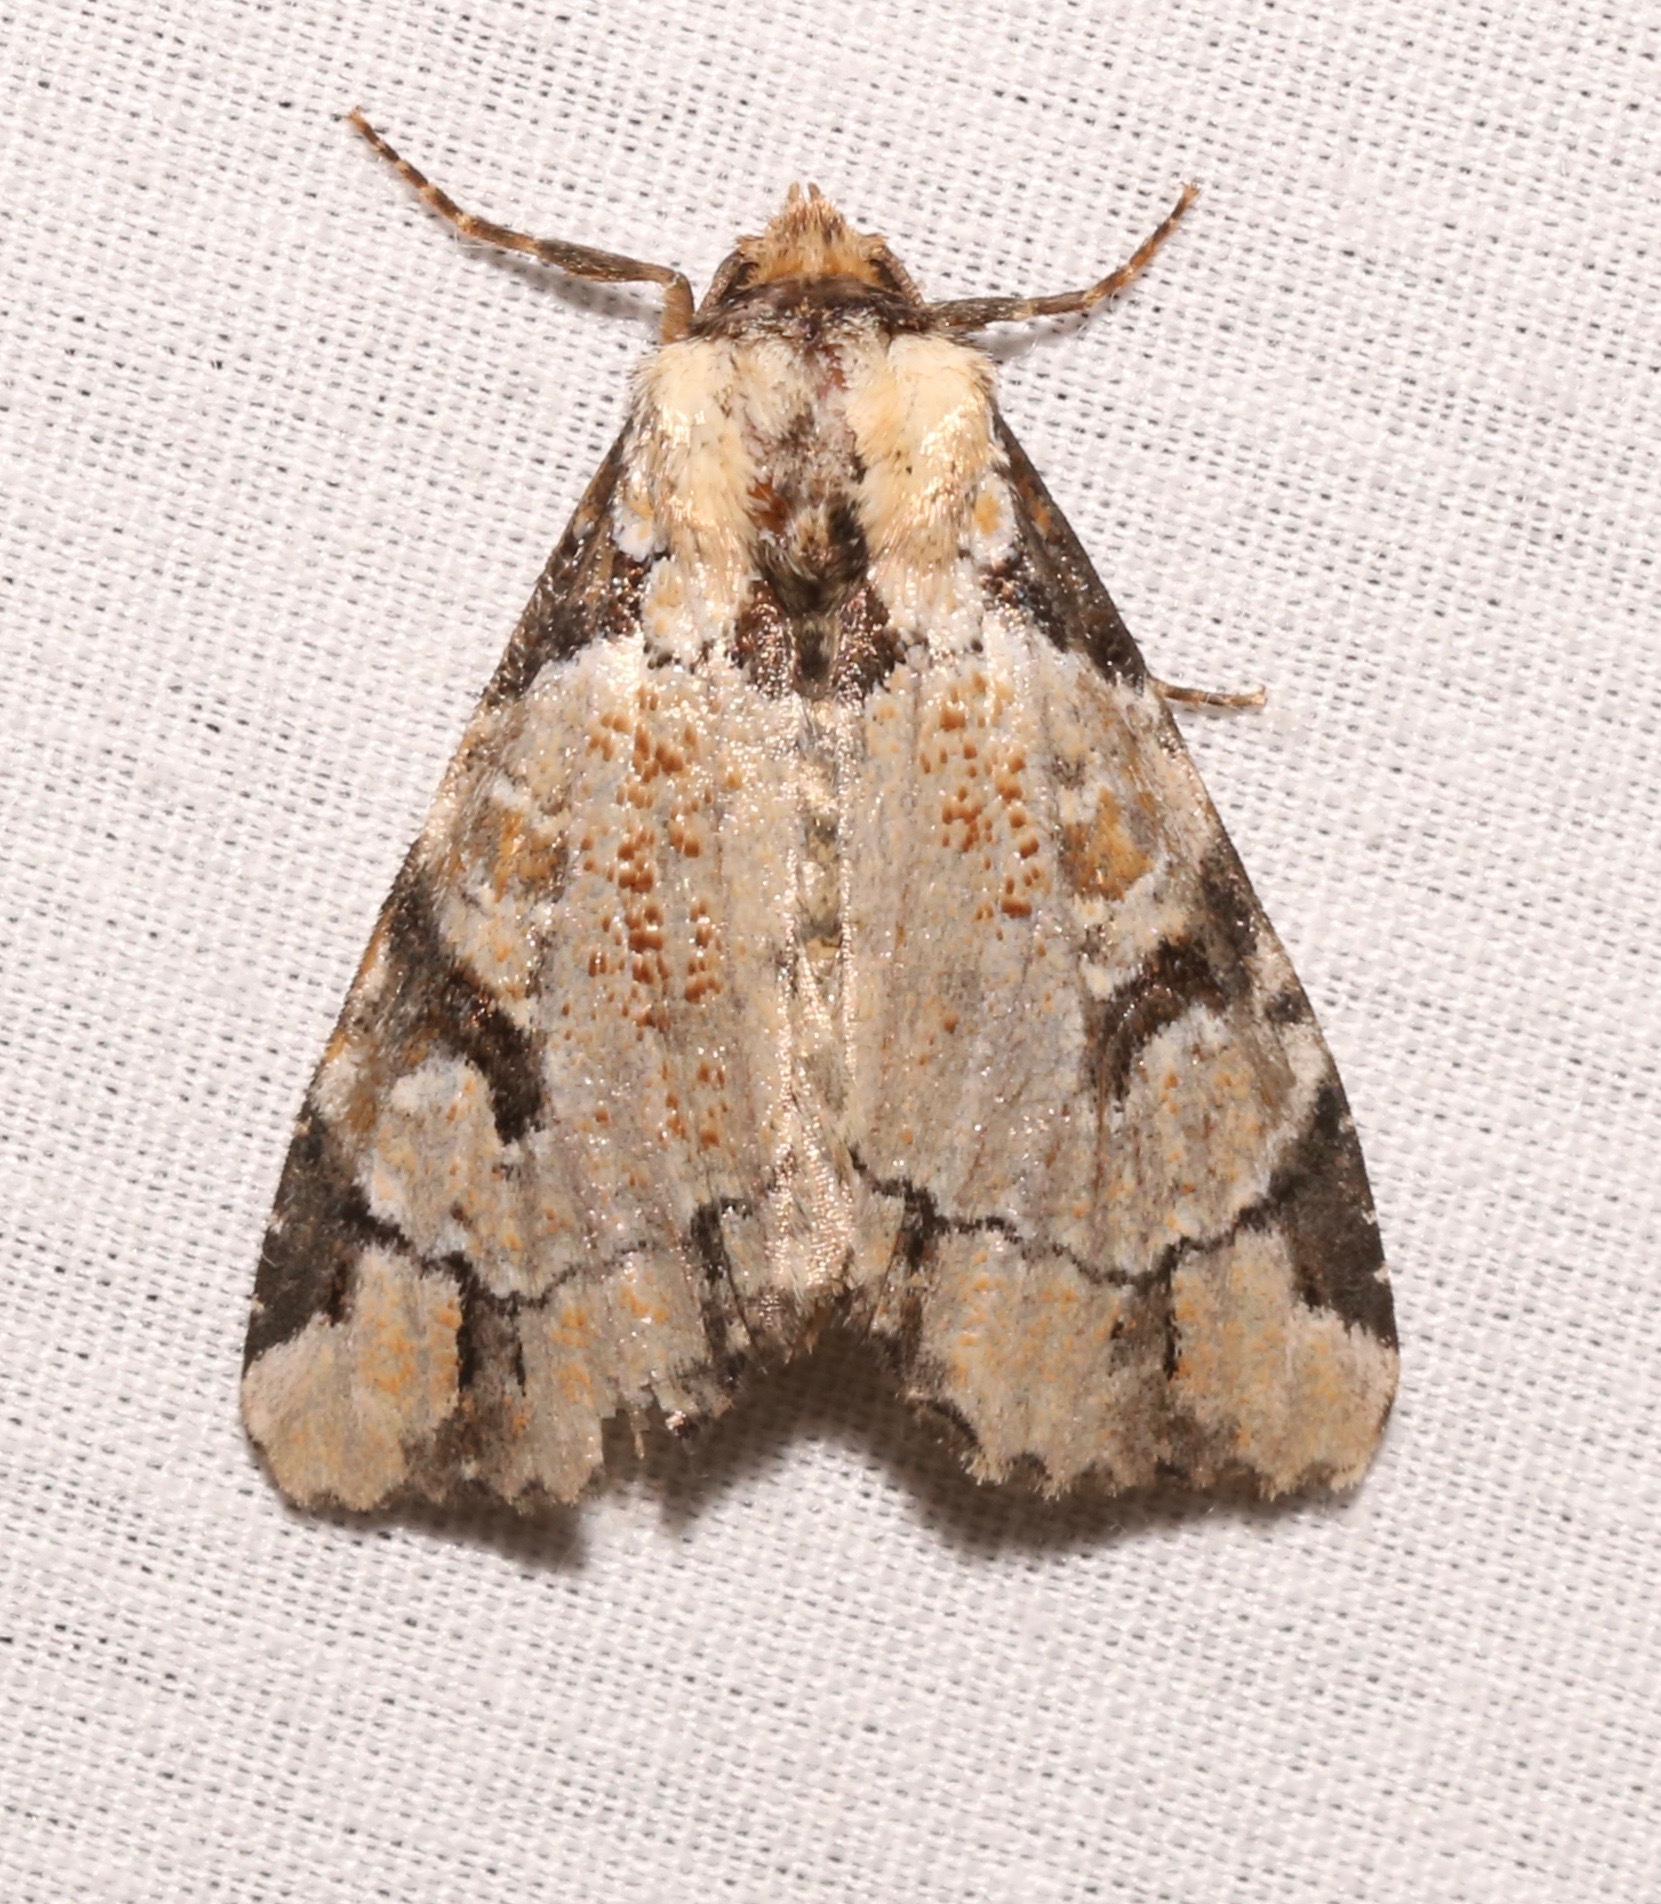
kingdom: Animalia
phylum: Arthropoda
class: Insecta
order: Lepidoptera
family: Noctuidae
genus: Stibaera
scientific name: Stibaera thyatiroides
